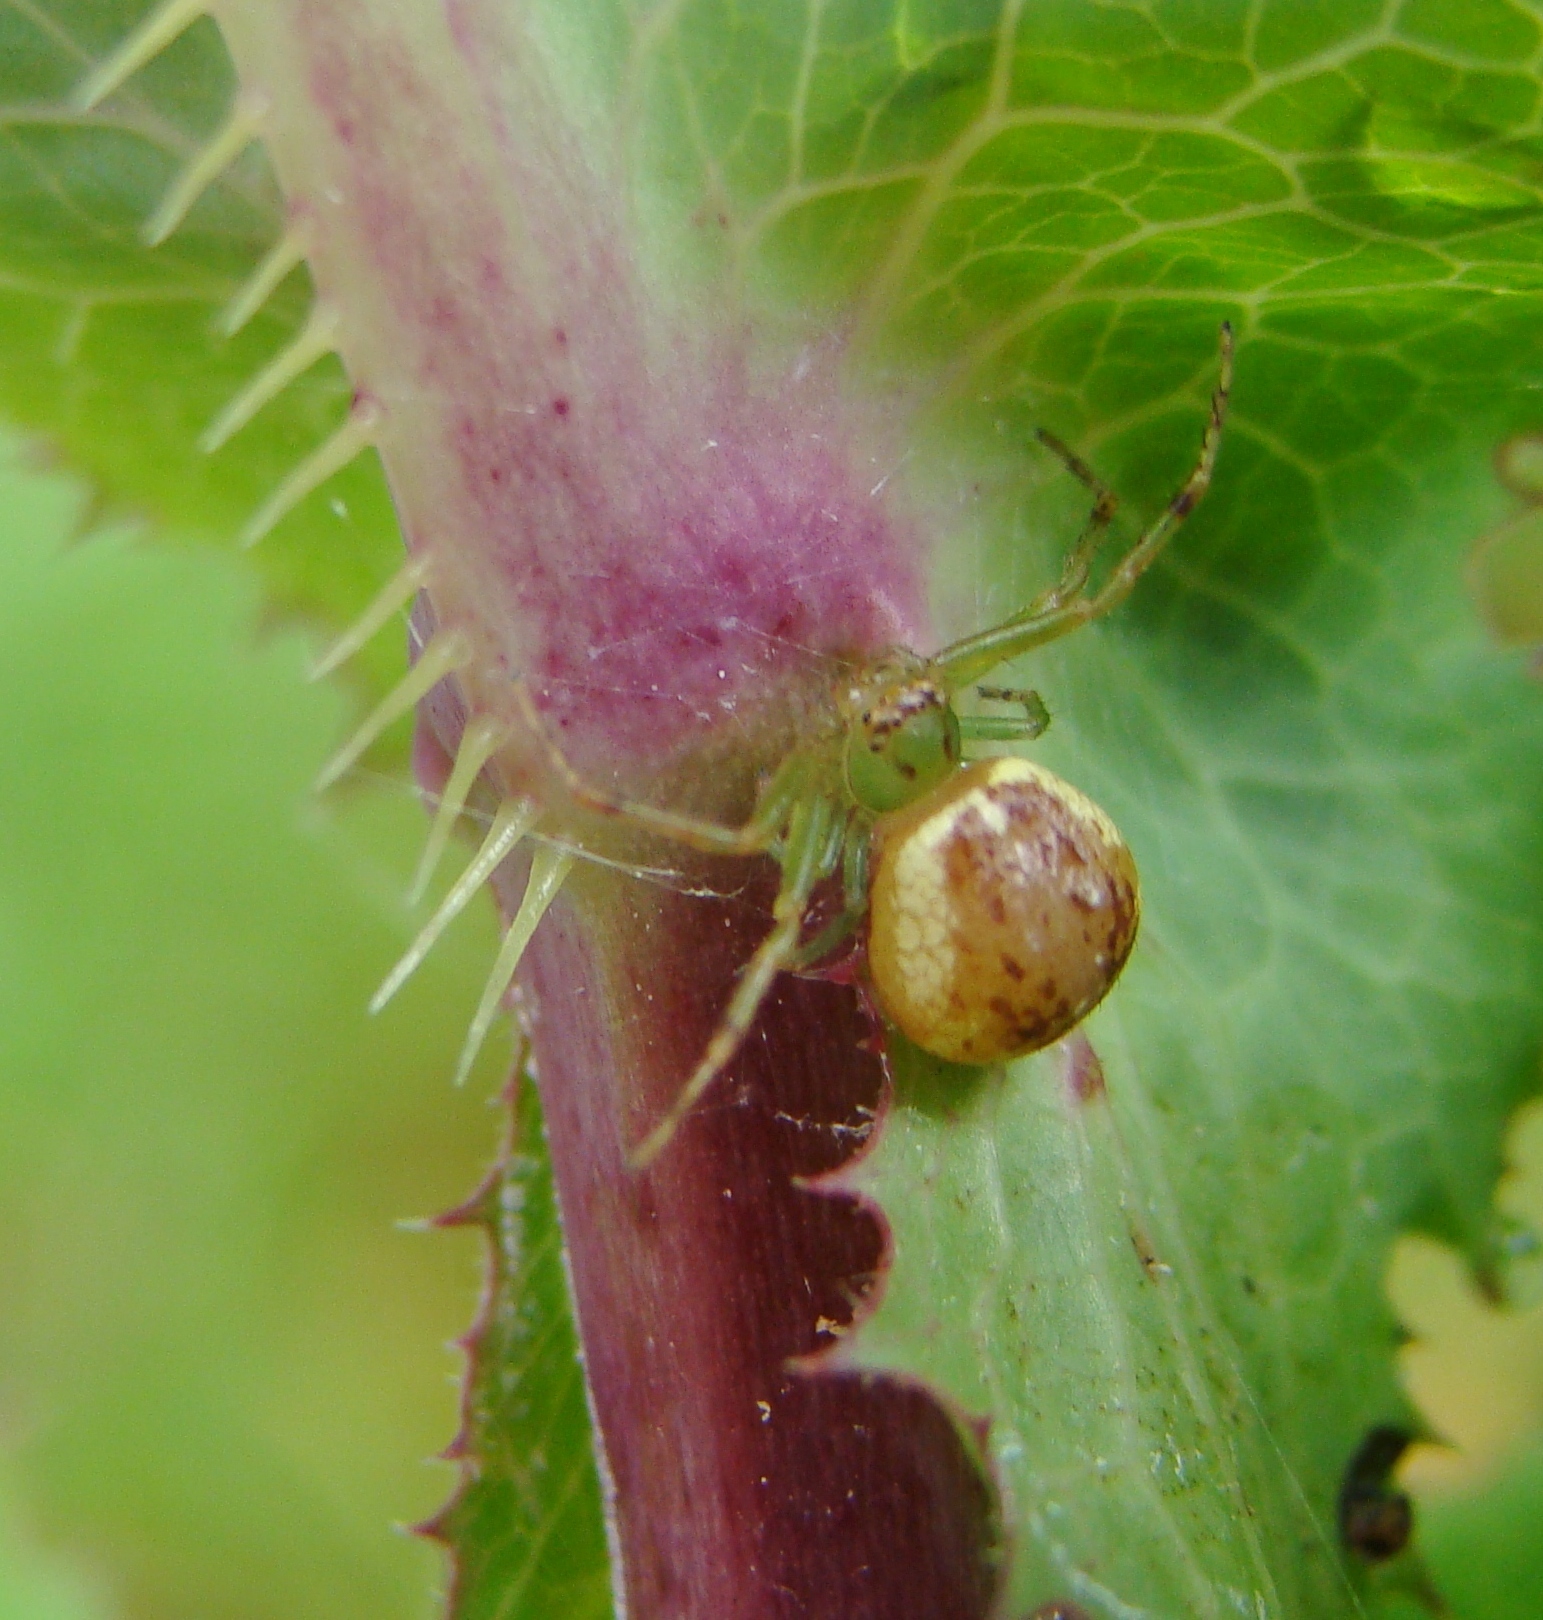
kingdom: Animalia
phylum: Arthropoda
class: Arachnida
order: Araneae
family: Thomisidae
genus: Diaea
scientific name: Diaea ambara
